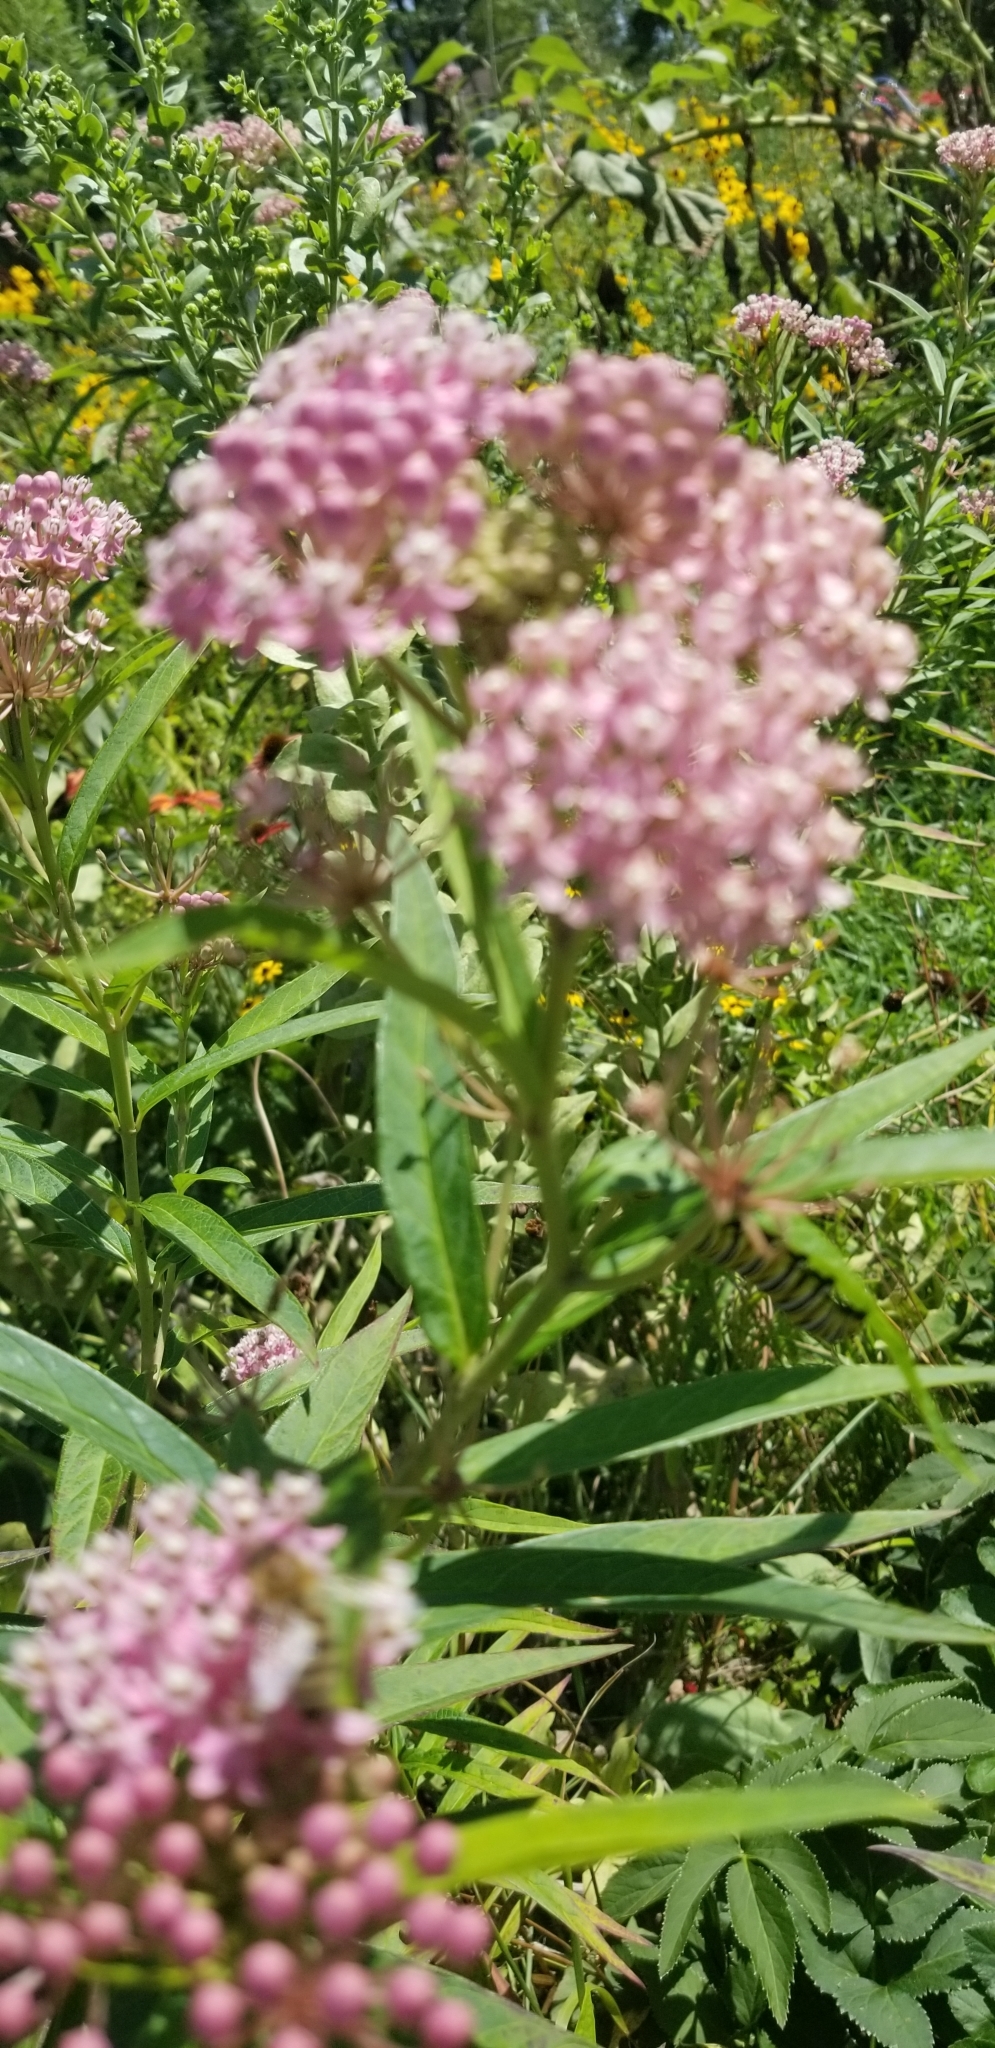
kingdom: Plantae
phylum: Tracheophyta
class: Magnoliopsida
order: Gentianales
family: Apocynaceae
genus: Asclepias
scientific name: Asclepias incarnata
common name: Swamp milkweed
